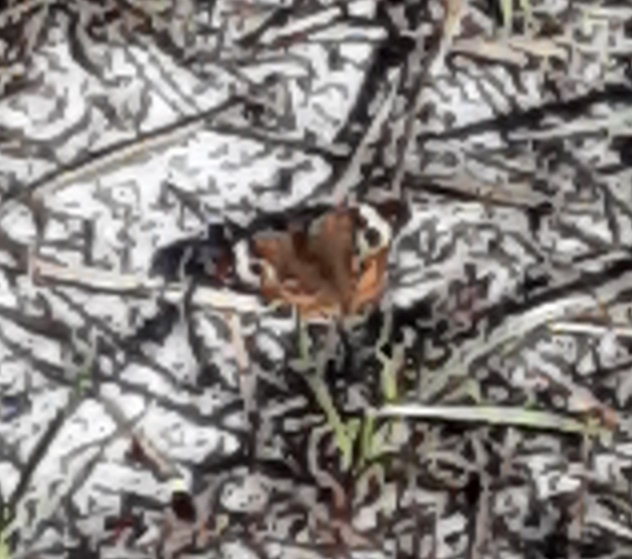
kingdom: Animalia
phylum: Arthropoda
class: Insecta
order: Lepidoptera
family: Nymphalidae
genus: Junonia
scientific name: Junonia coenia
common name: Common buckeye
